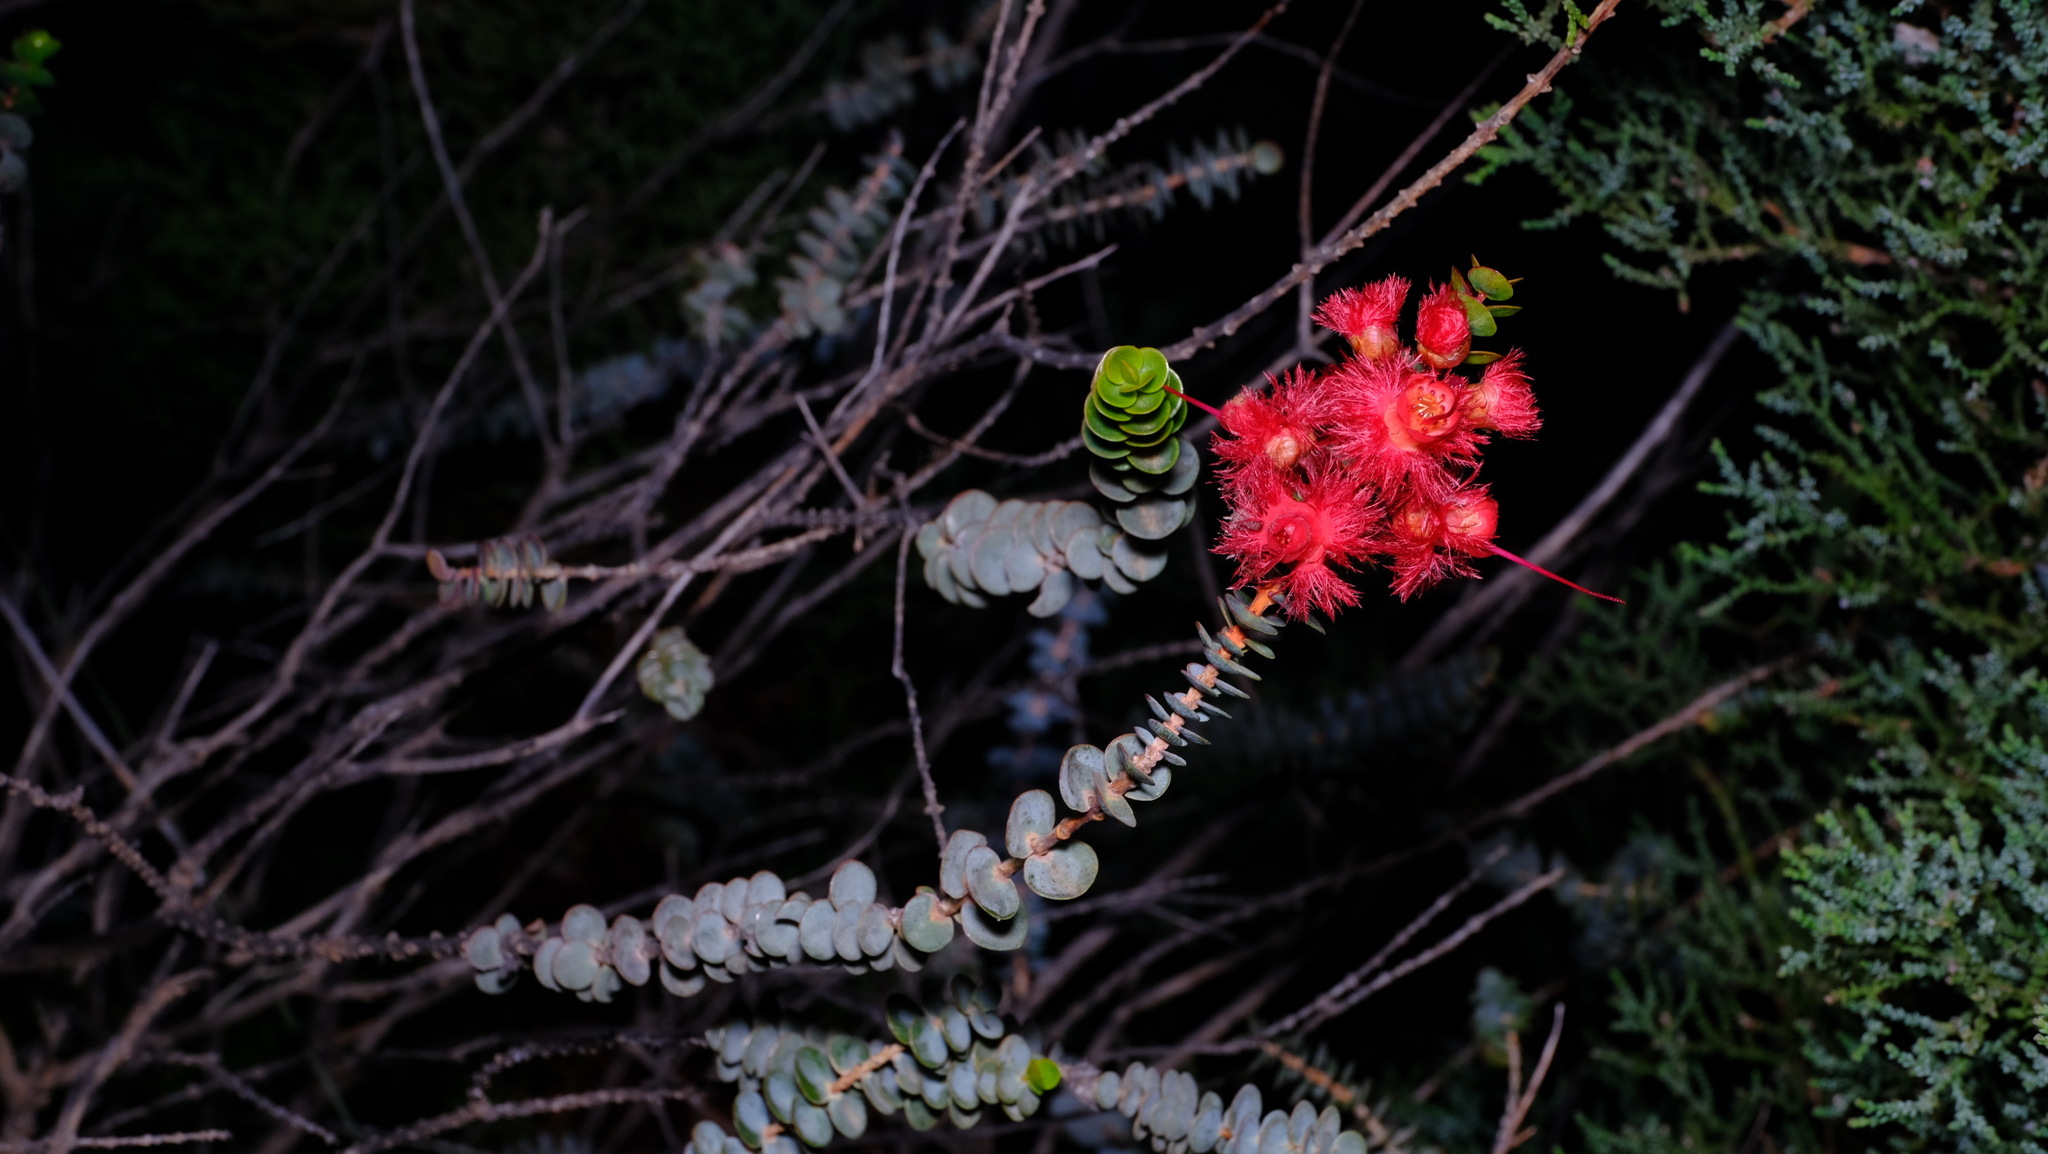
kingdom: Plantae
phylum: Tracheophyta
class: Magnoliopsida
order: Myrtales
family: Myrtaceae
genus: Verticordia
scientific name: Verticordia grandis
